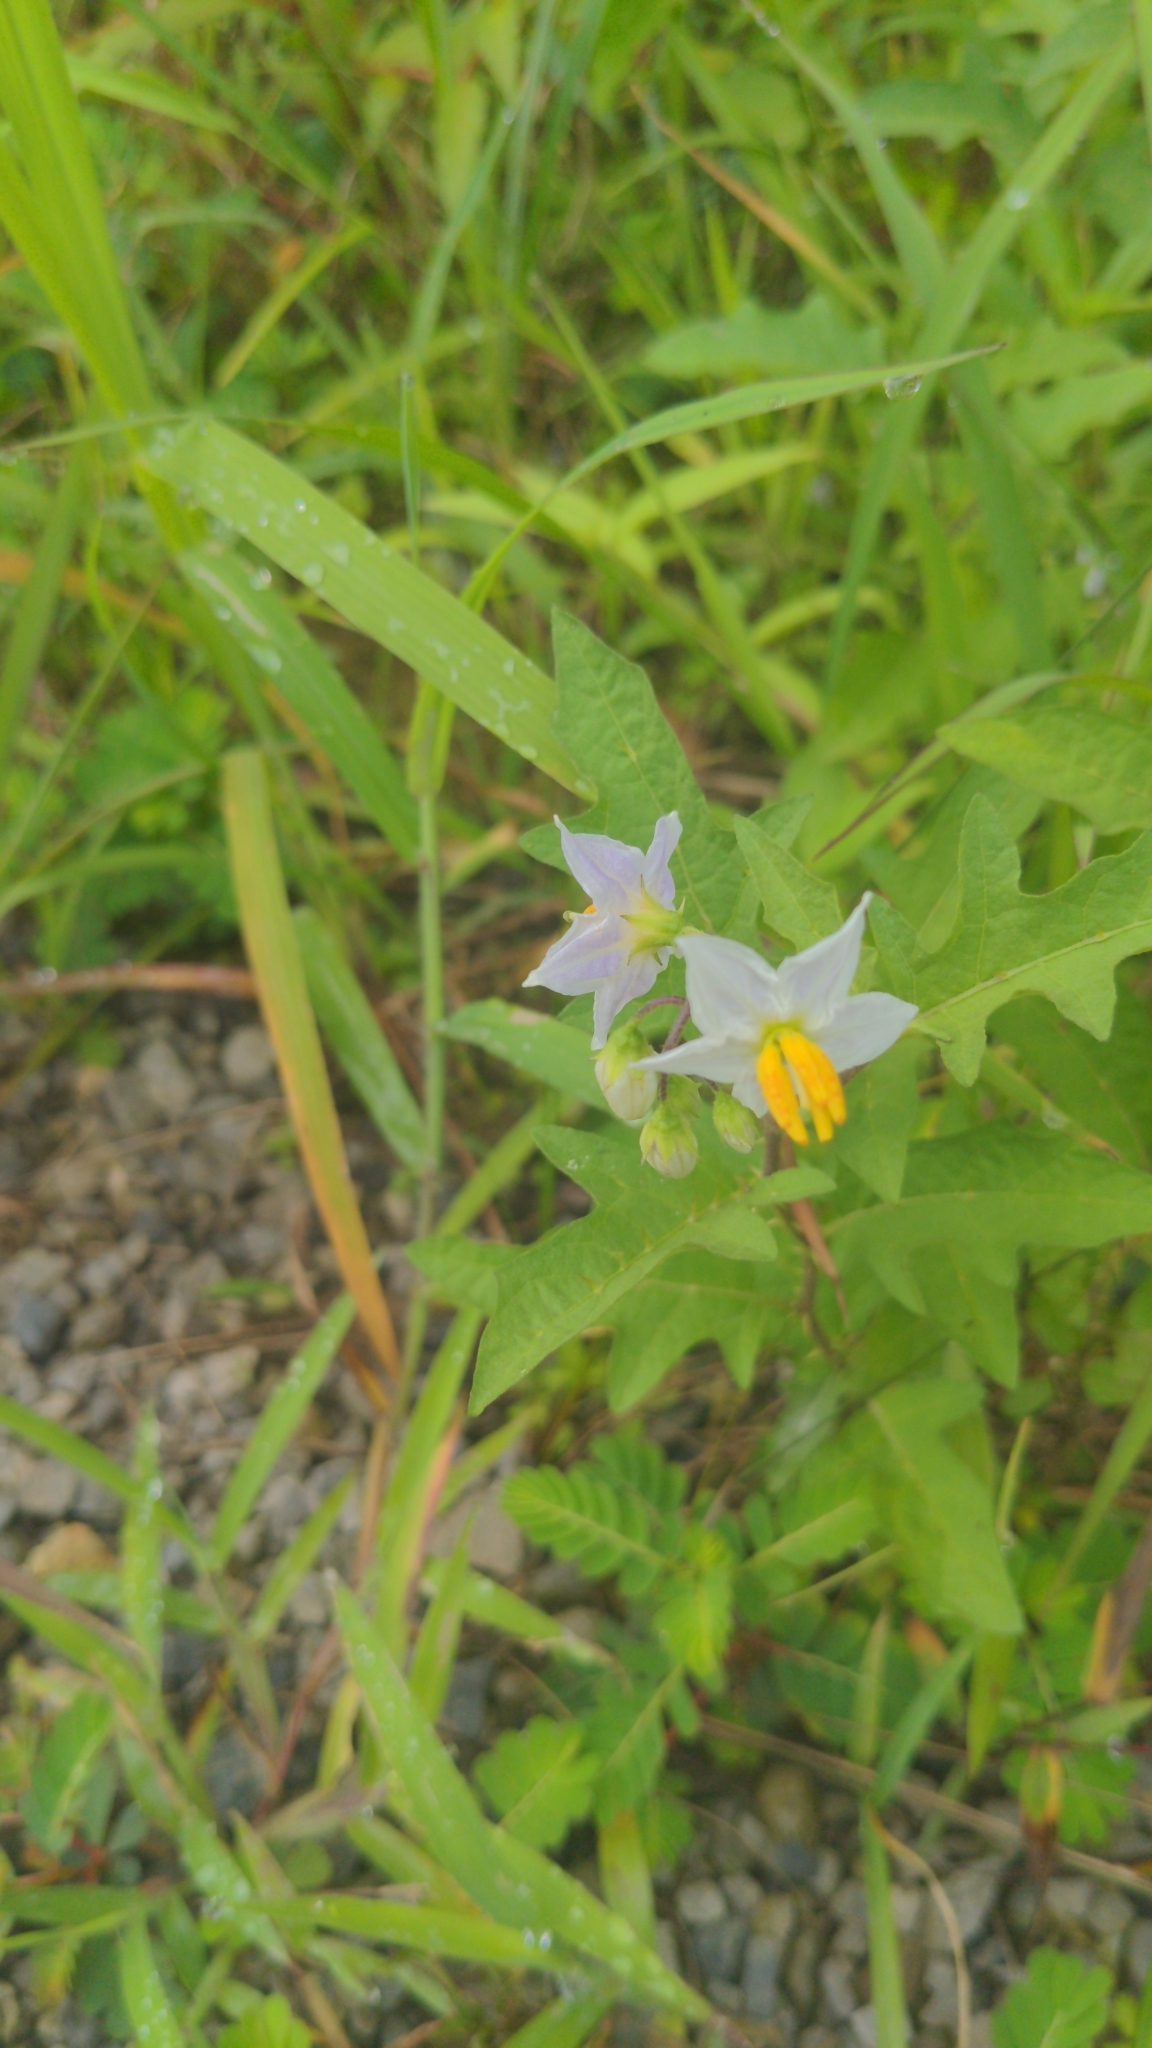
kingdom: Plantae
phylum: Tracheophyta
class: Magnoliopsida
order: Solanales
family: Solanaceae
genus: Solanum
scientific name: Solanum carolinense
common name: Horse-nettle
